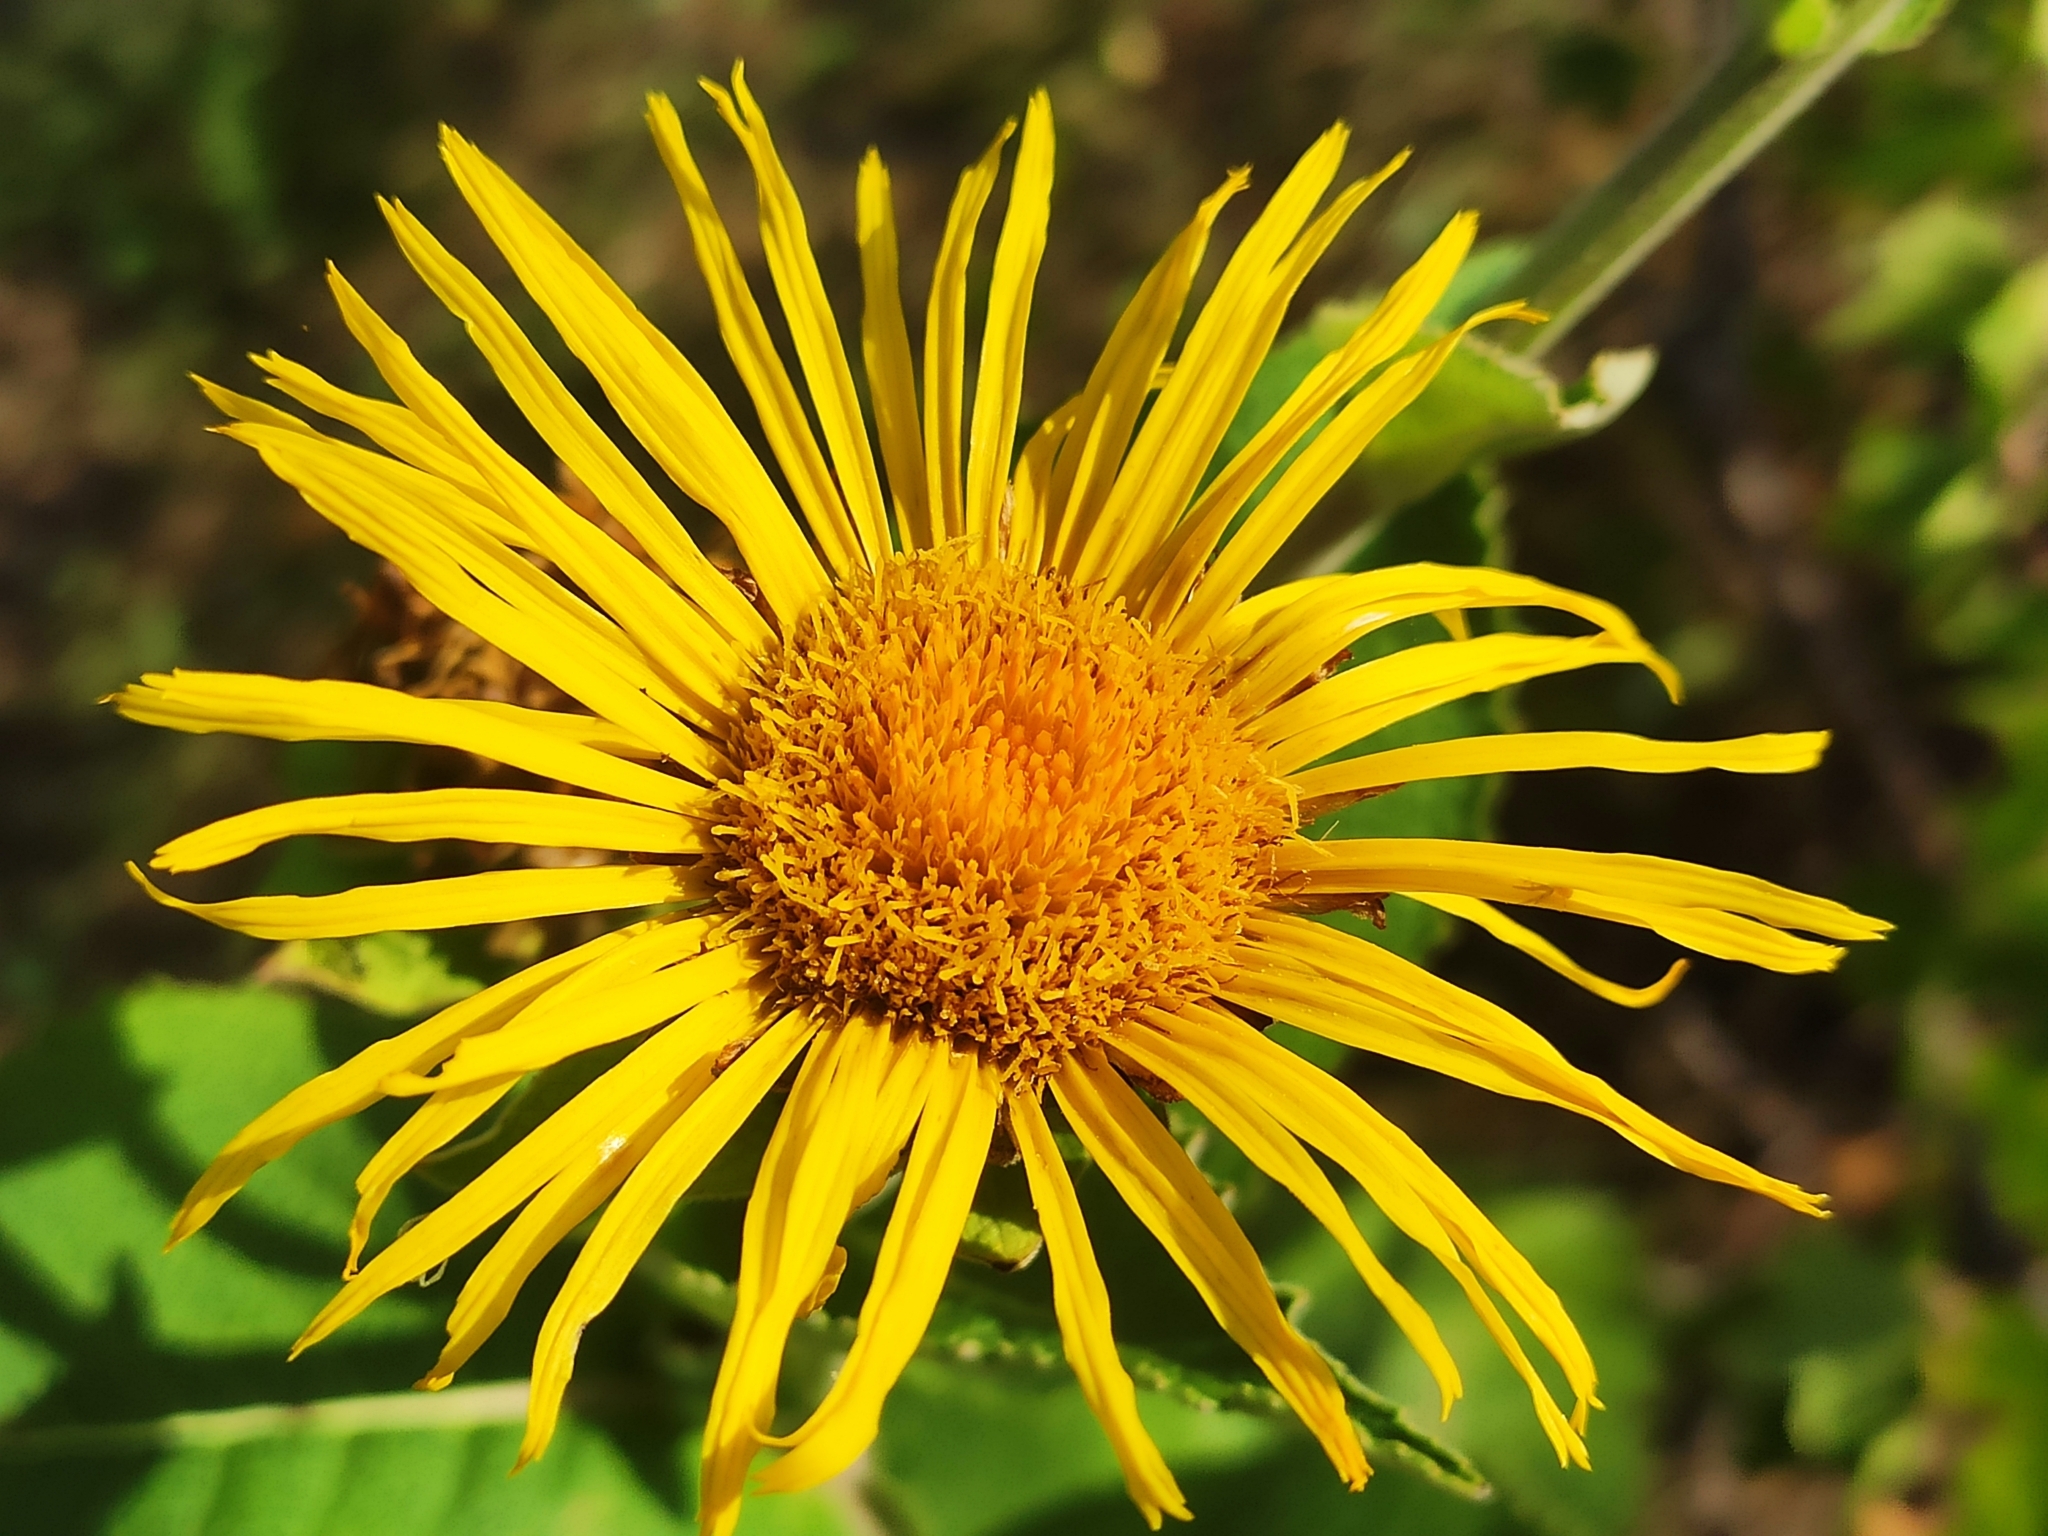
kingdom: Plantae
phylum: Tracheophyta
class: Magnoliopsida
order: Asterales
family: Asteraceae
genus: Inula
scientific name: Inula helenium
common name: Elecampane
